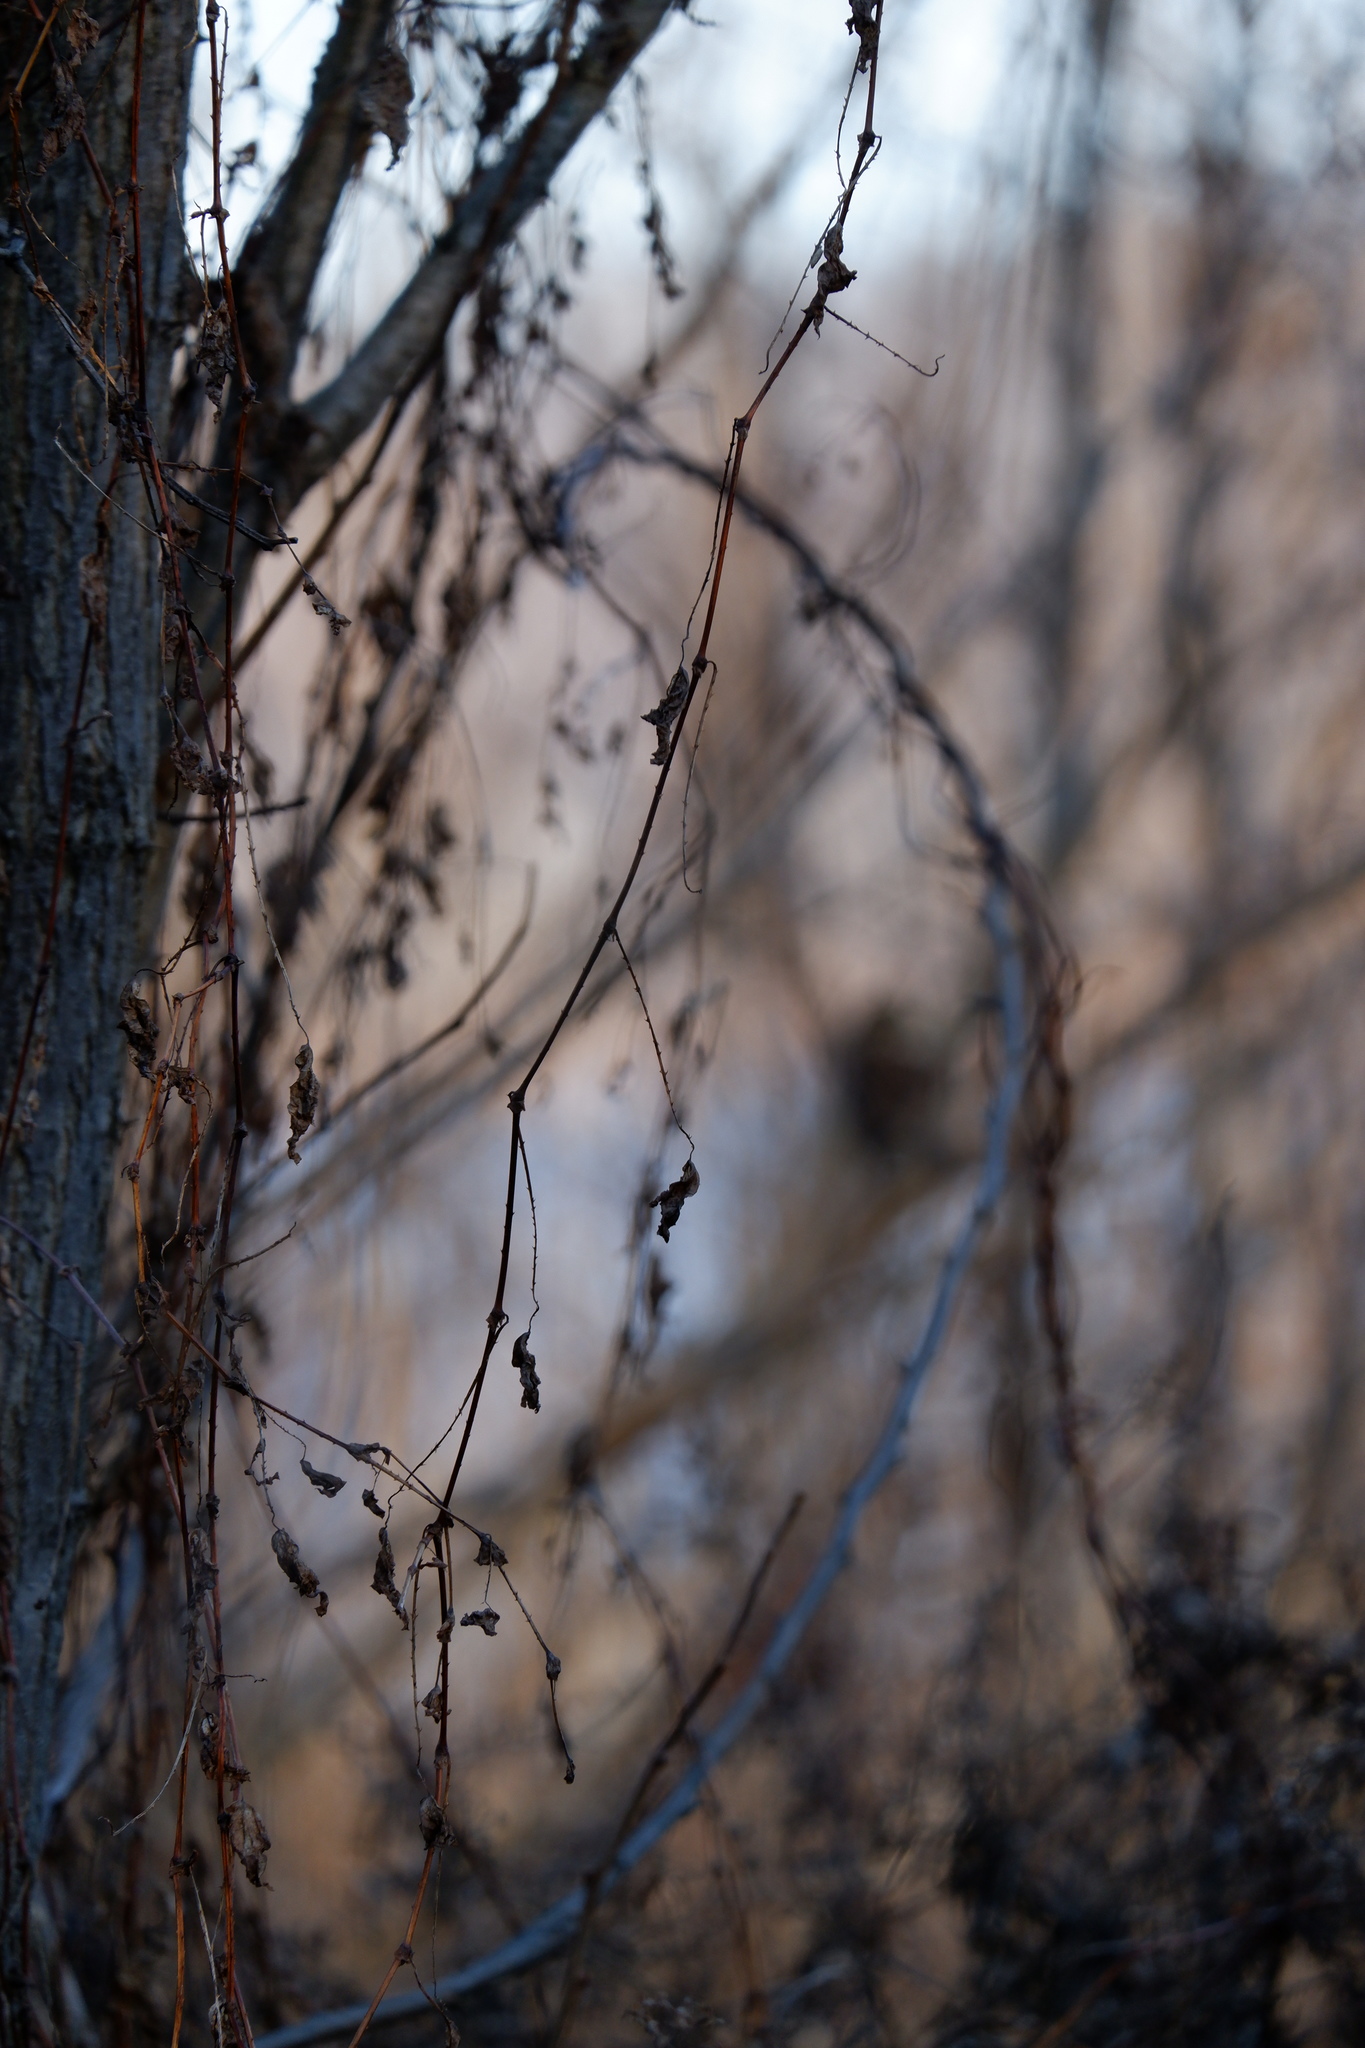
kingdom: Plantae
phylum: Tracheophyta
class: Magnoliopsida
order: Caryophyllales
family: Polygonaceae
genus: Persicaria
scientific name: Persicaria perfoliata
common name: Asiatic tearthumb
